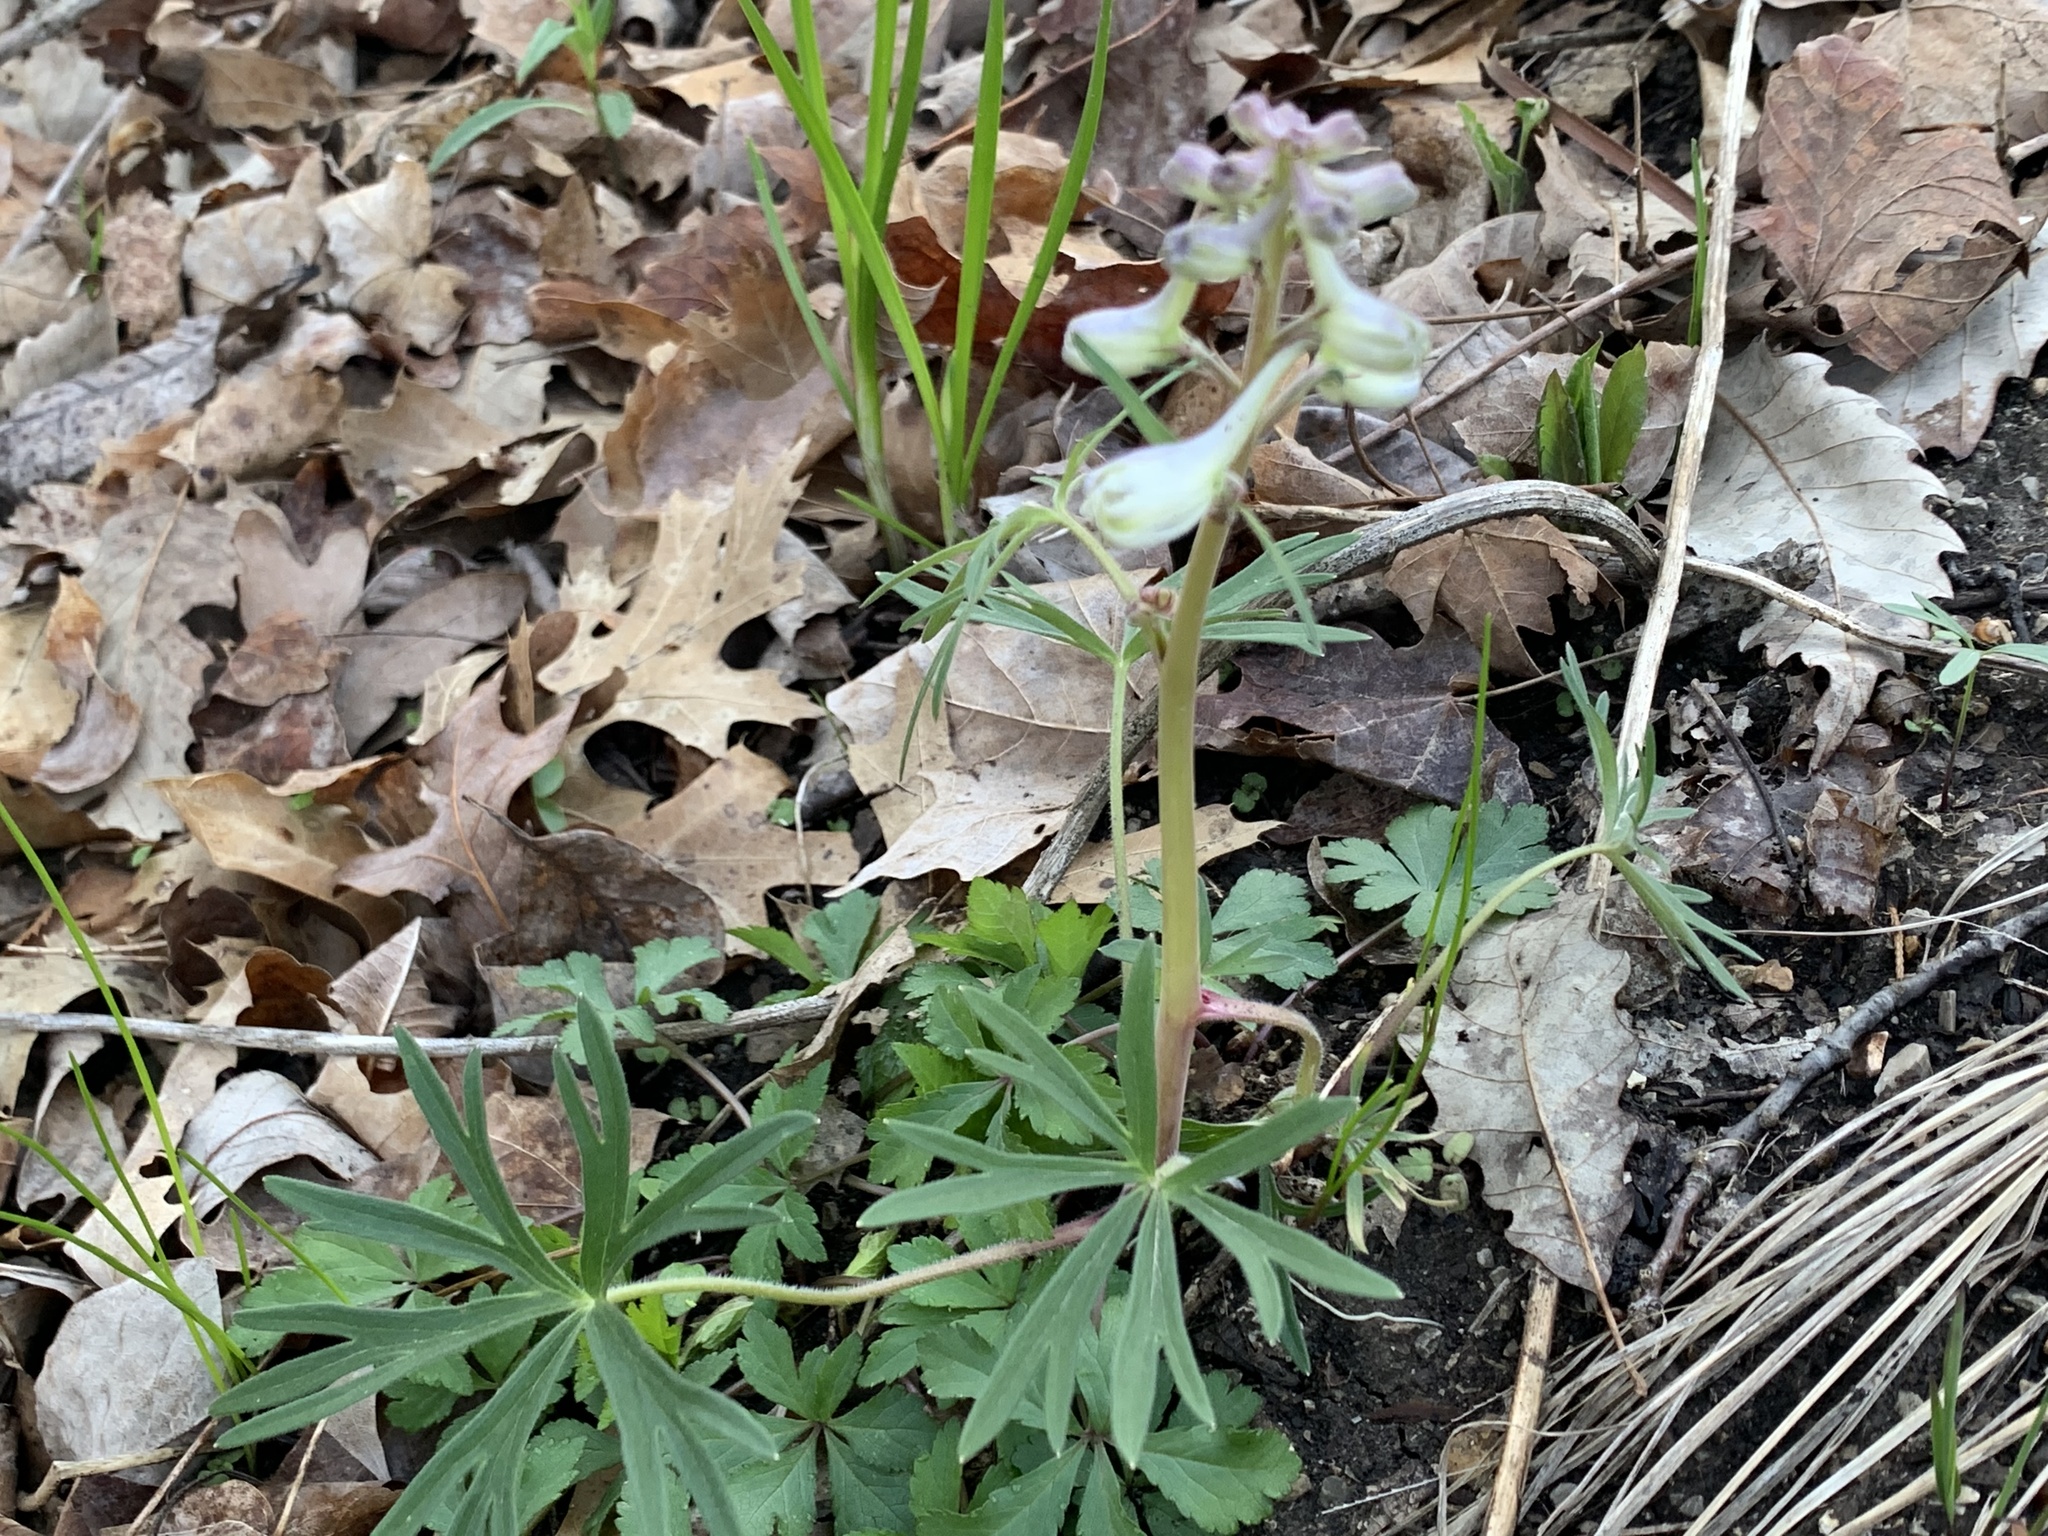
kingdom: Plantae
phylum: Tracheophyta
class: Magnoliopsida
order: Ranunculales
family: Ranunculaceae
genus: Delphinium
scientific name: Delphinium tricorne
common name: Dwarf larkspur
